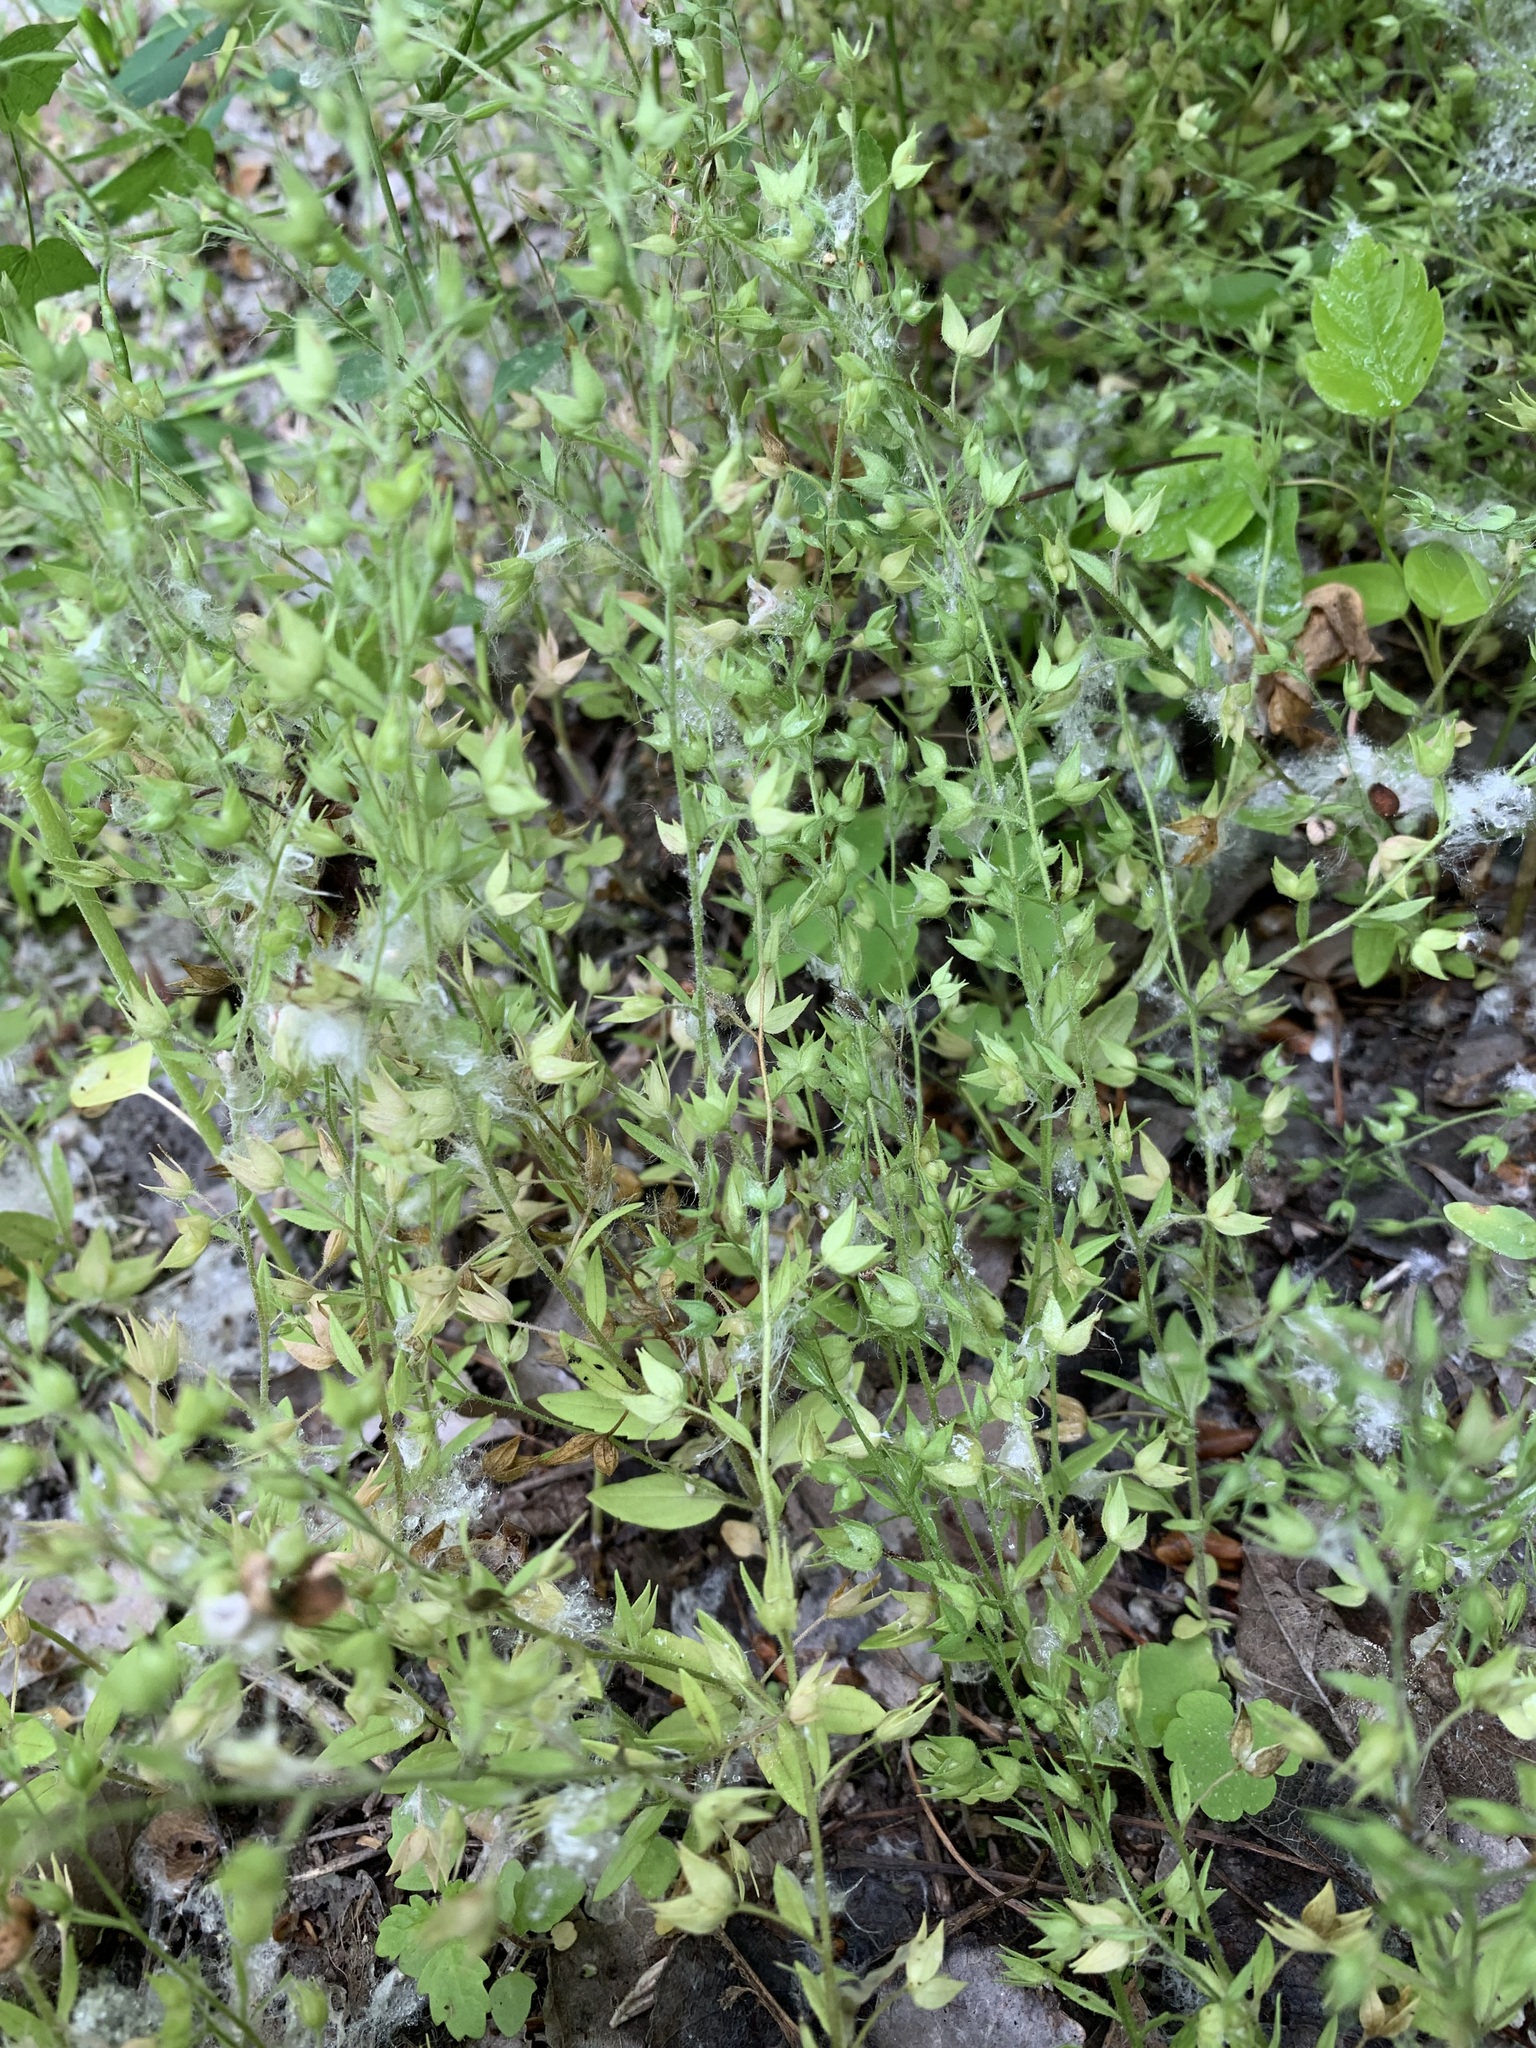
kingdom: Plantae
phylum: Tracheophyta
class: Magnoliopsida
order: Lamiales
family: Plantaginaceae
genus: Veronica
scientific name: Veronica biloba
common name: Twolobe speedwell
